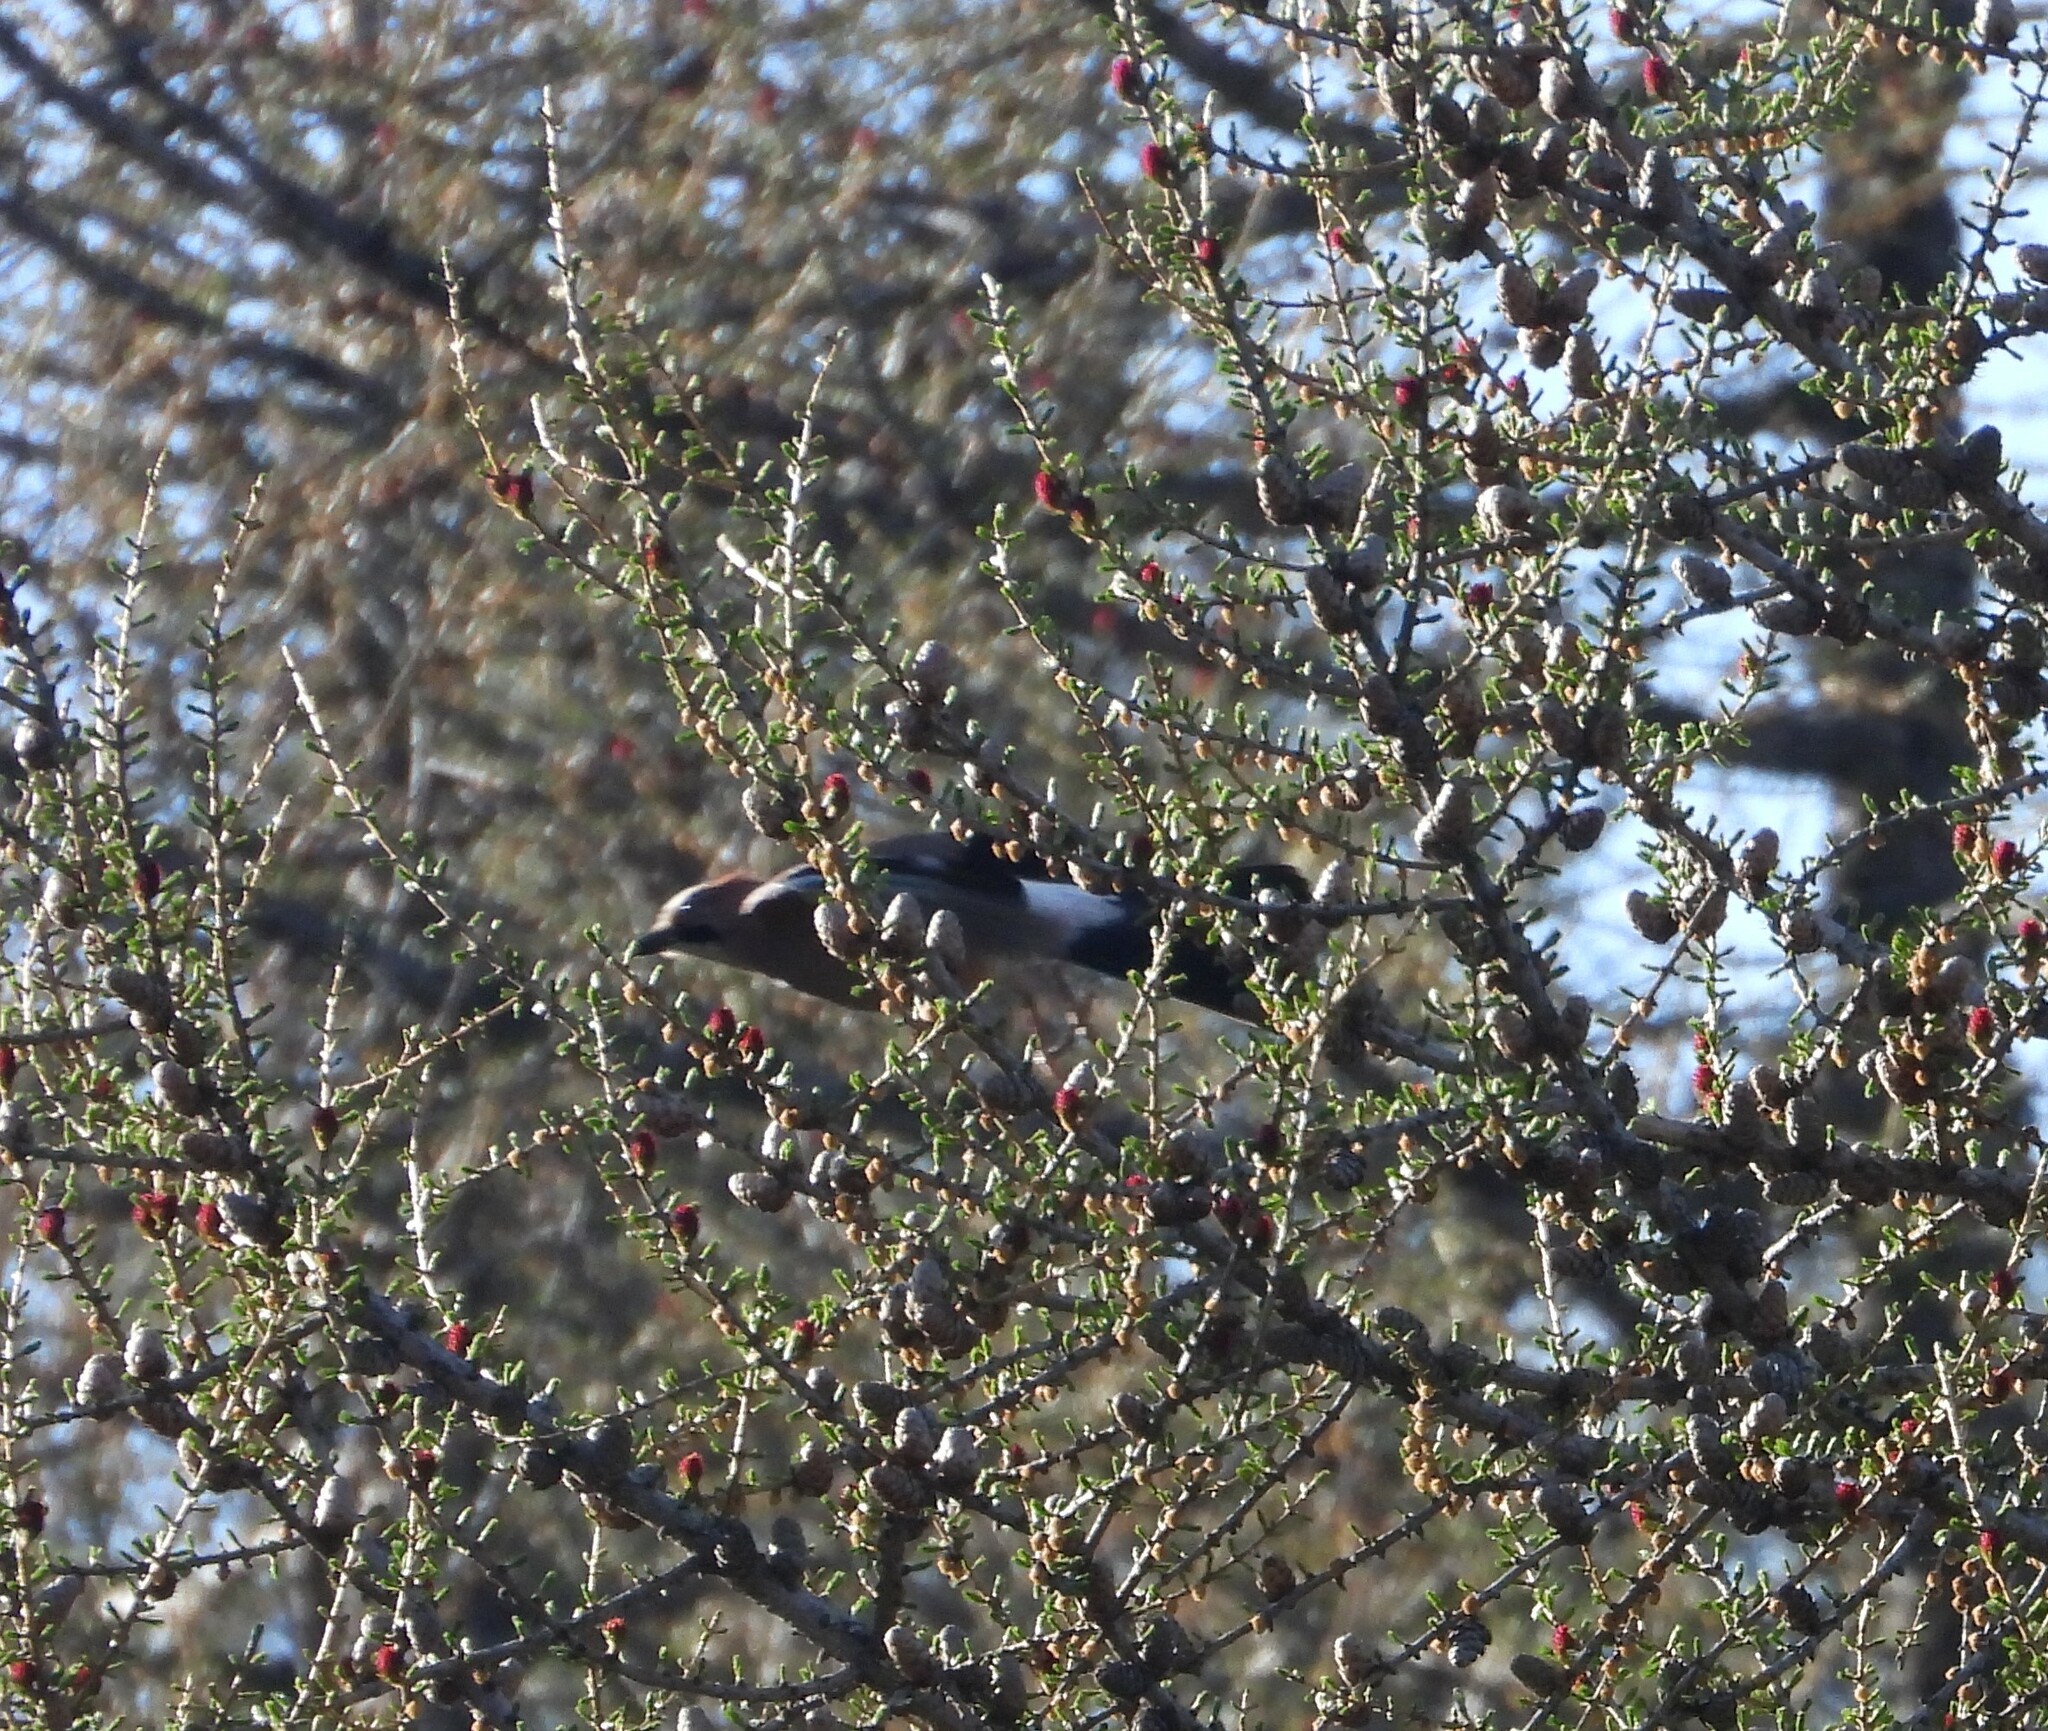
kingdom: Animalia
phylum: Chordata
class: Aves
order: Passeriformes
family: Corvidae
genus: Garrulus
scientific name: Garrulus glandarius
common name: Eurasian jay
